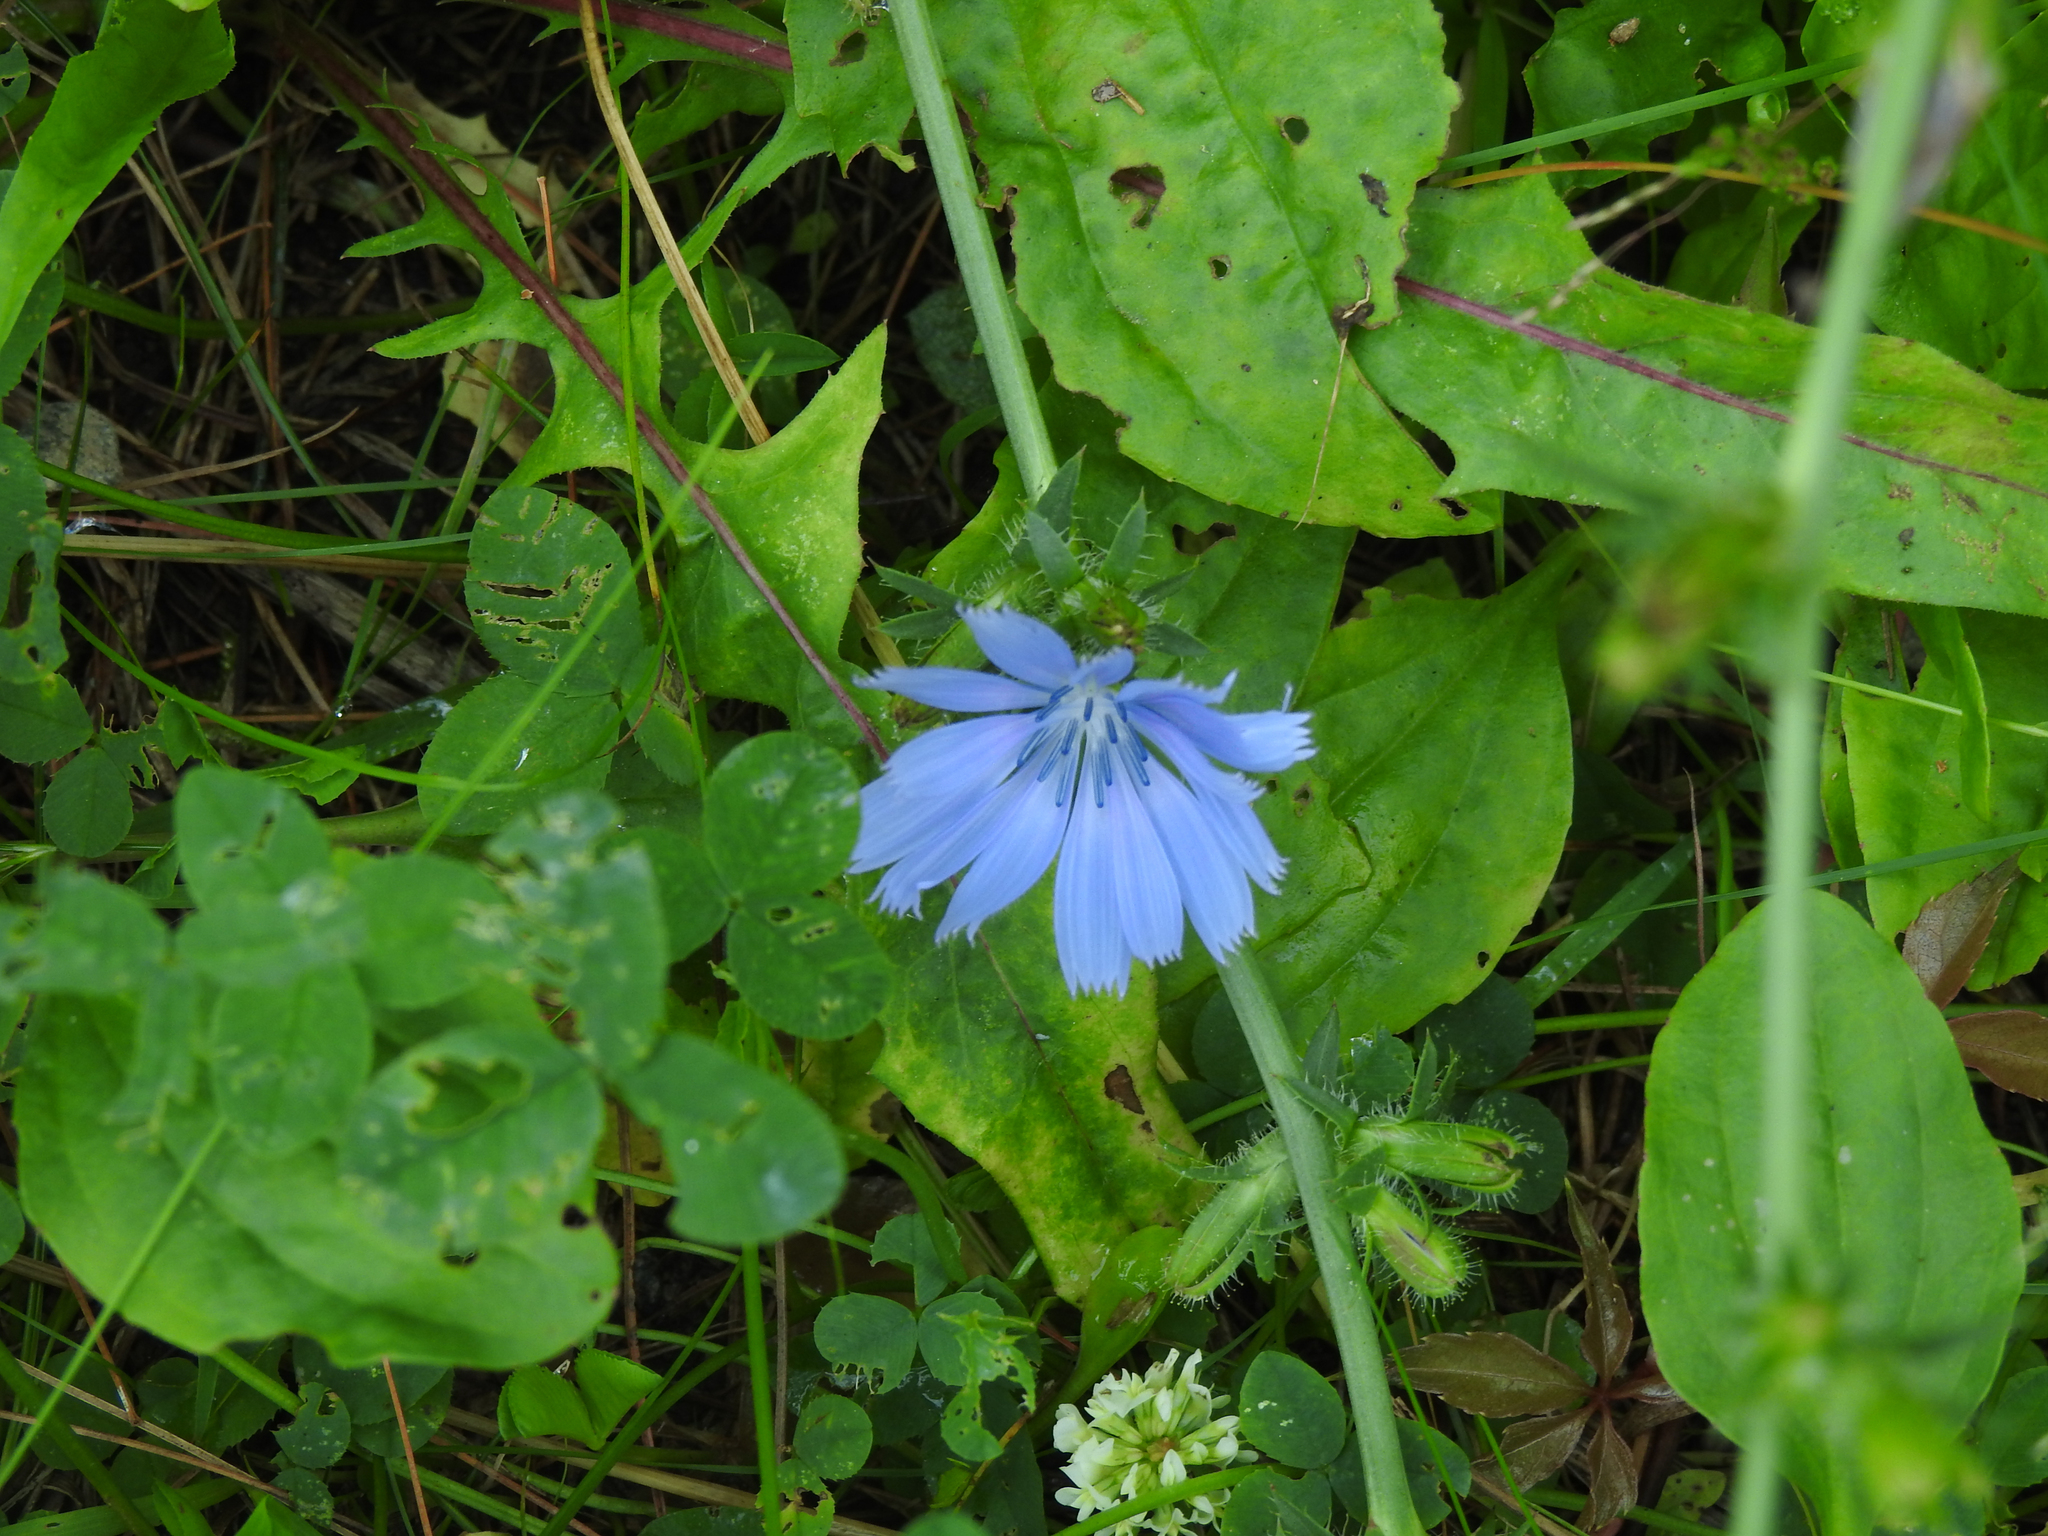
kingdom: Plantae
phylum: Tracheophyta
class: Magnoliopsida
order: Asterales
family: Asteraceae
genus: Cichorium
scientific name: Cichorium intybus
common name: Chicory
